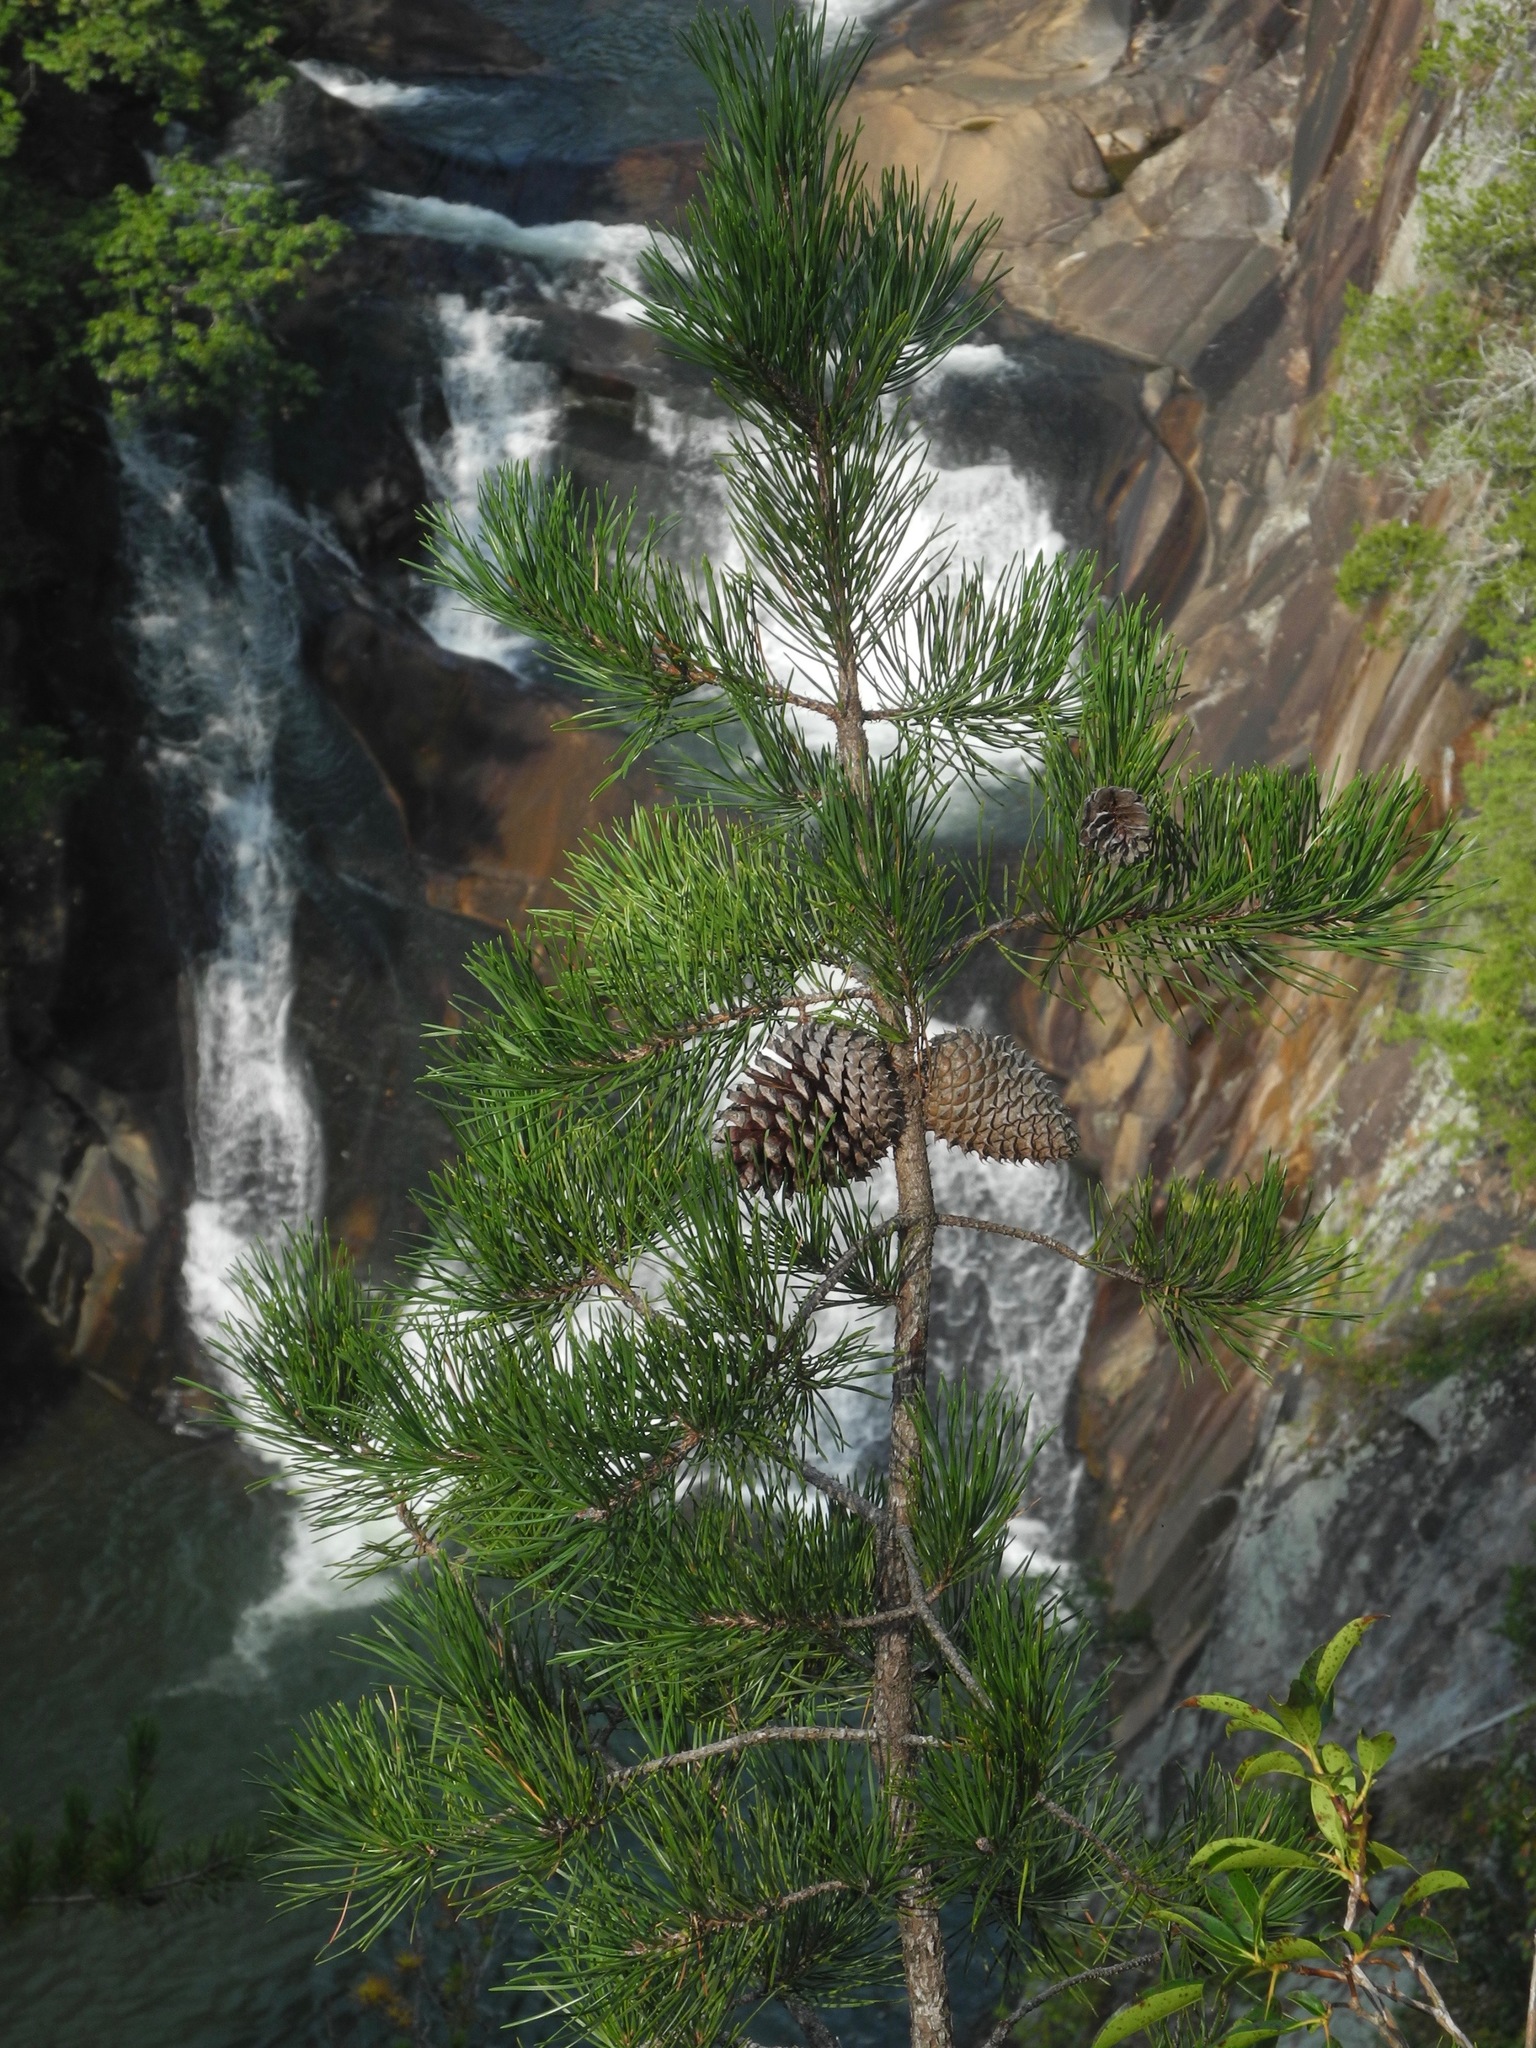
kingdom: Plantae
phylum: Tracheophyta
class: Pinopsida
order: Pinales
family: Pinaceae
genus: Pinus
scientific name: Pinus virginiana
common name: Scrub pine
